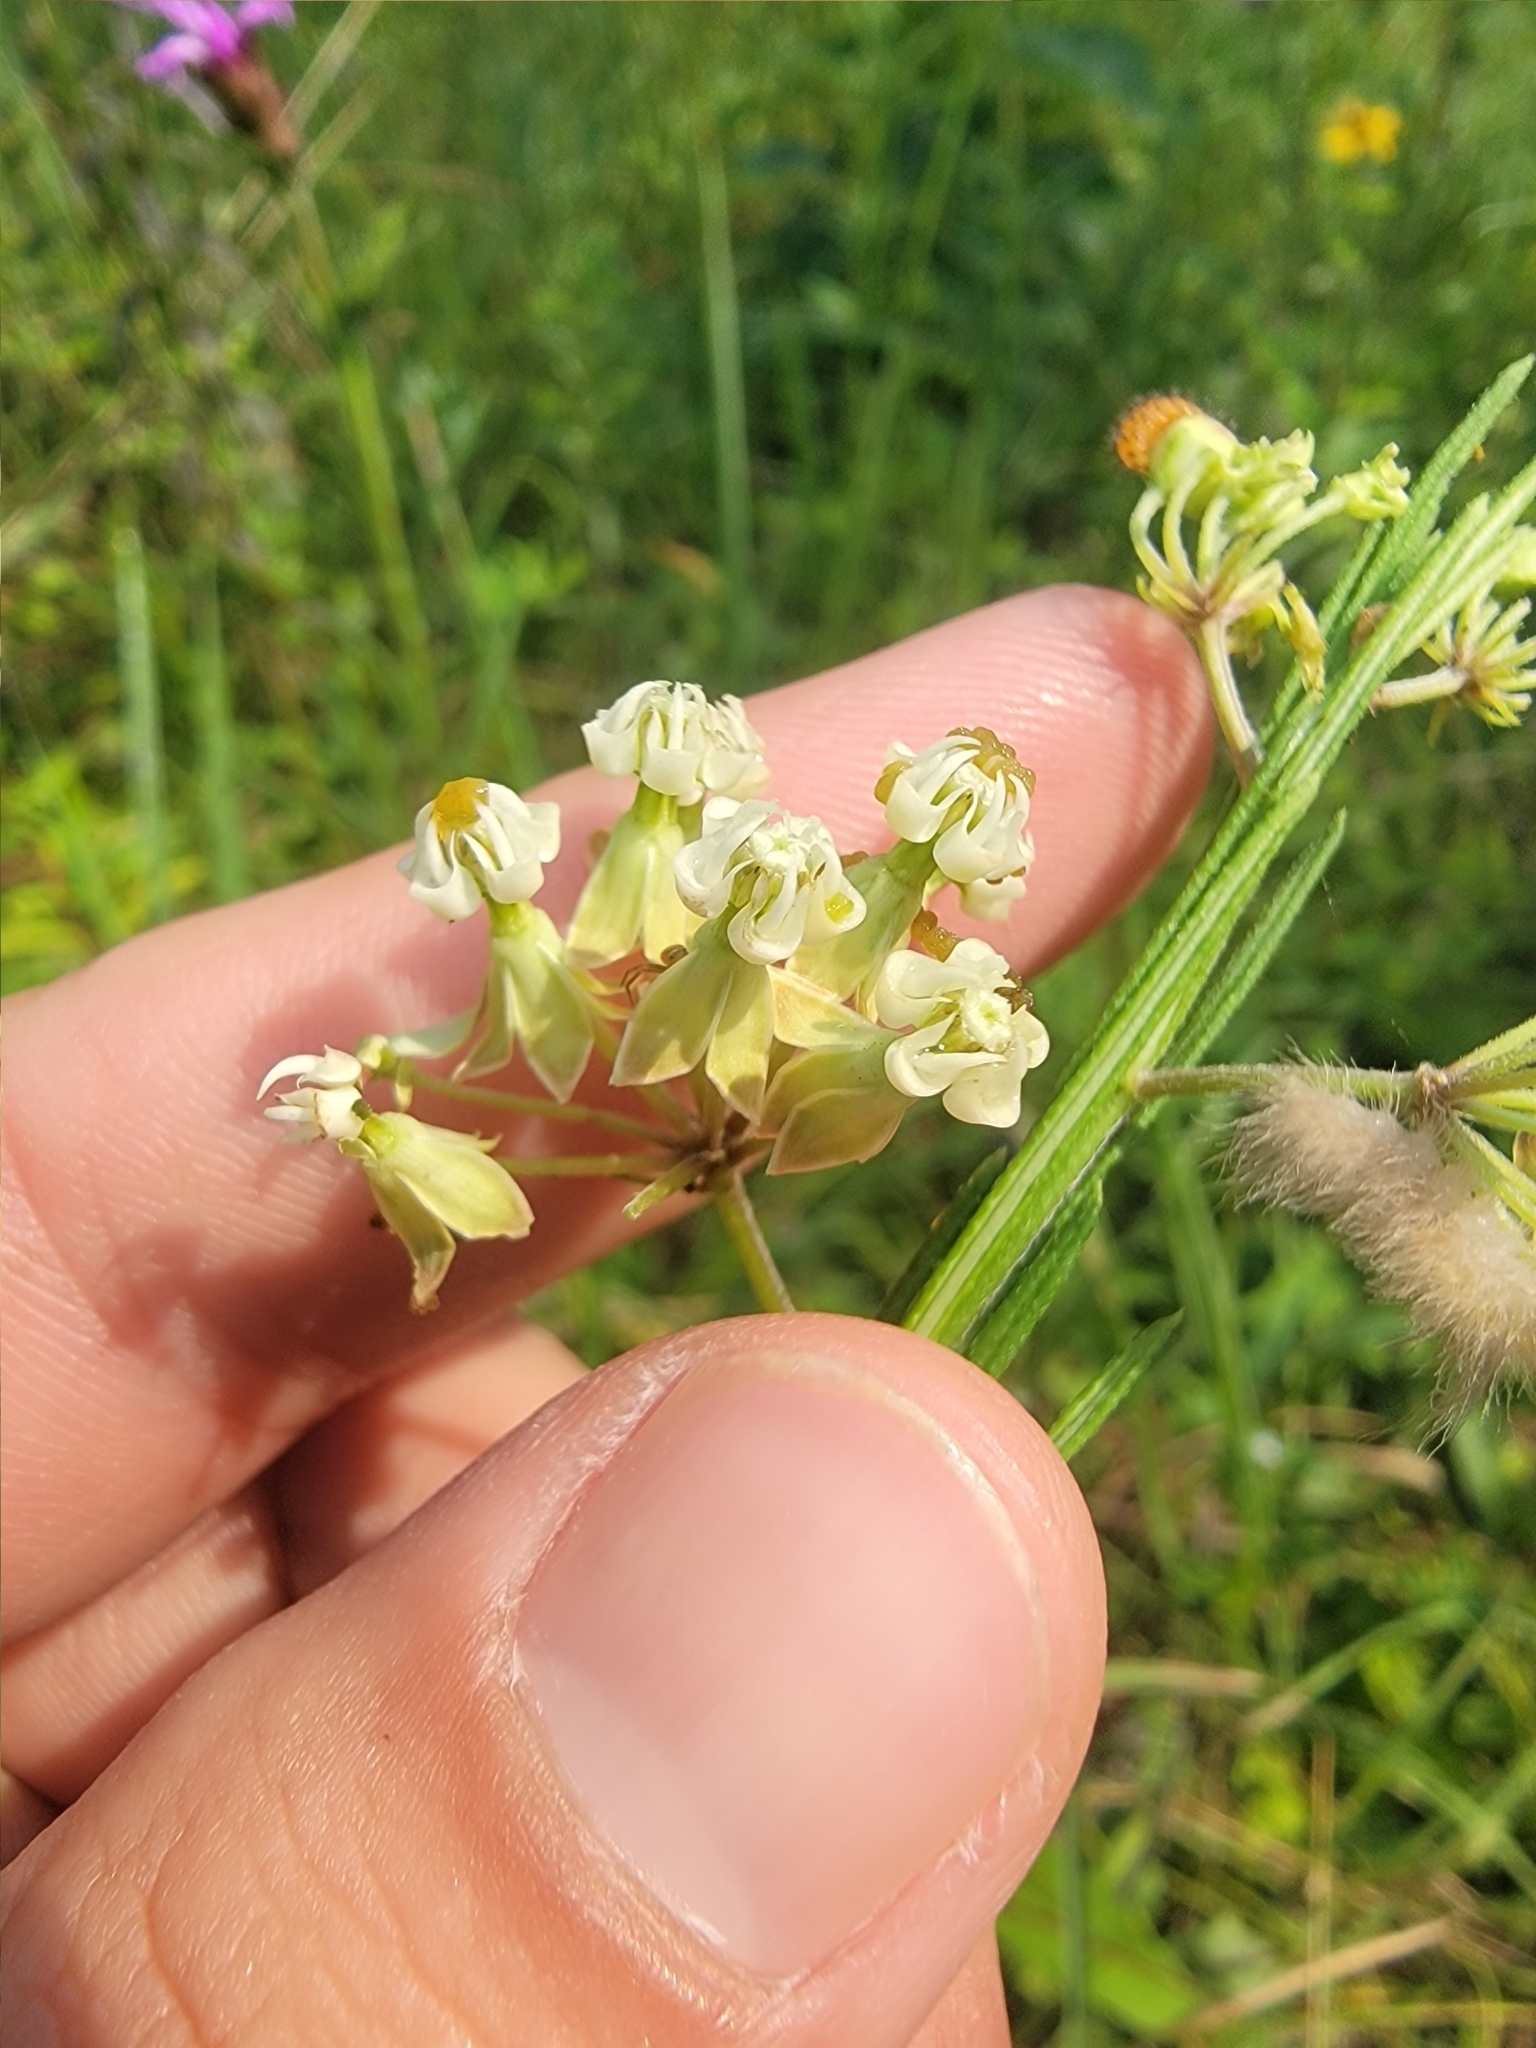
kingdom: Plantae
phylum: Tracheophyta
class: Magnoliopsida
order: Gentianales
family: Apocynaceae
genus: Asclepias
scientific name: Asclepias verticillata
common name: Eastern whorled milkweed
